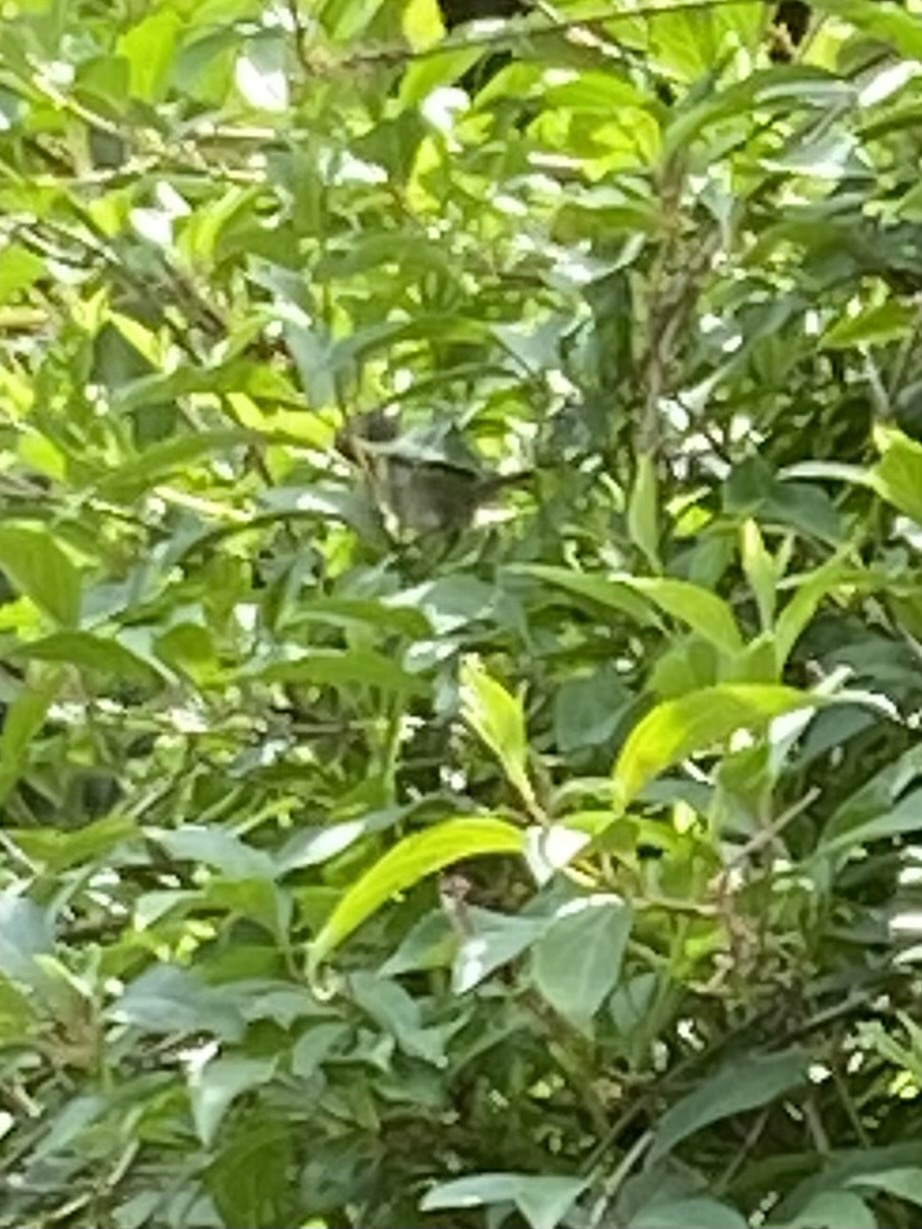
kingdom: Animalia
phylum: Chordata
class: Aves
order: Passeriformes
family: Aegithalidae
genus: Psaltriparus
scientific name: Psaltriparus minimus
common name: American bushtit
